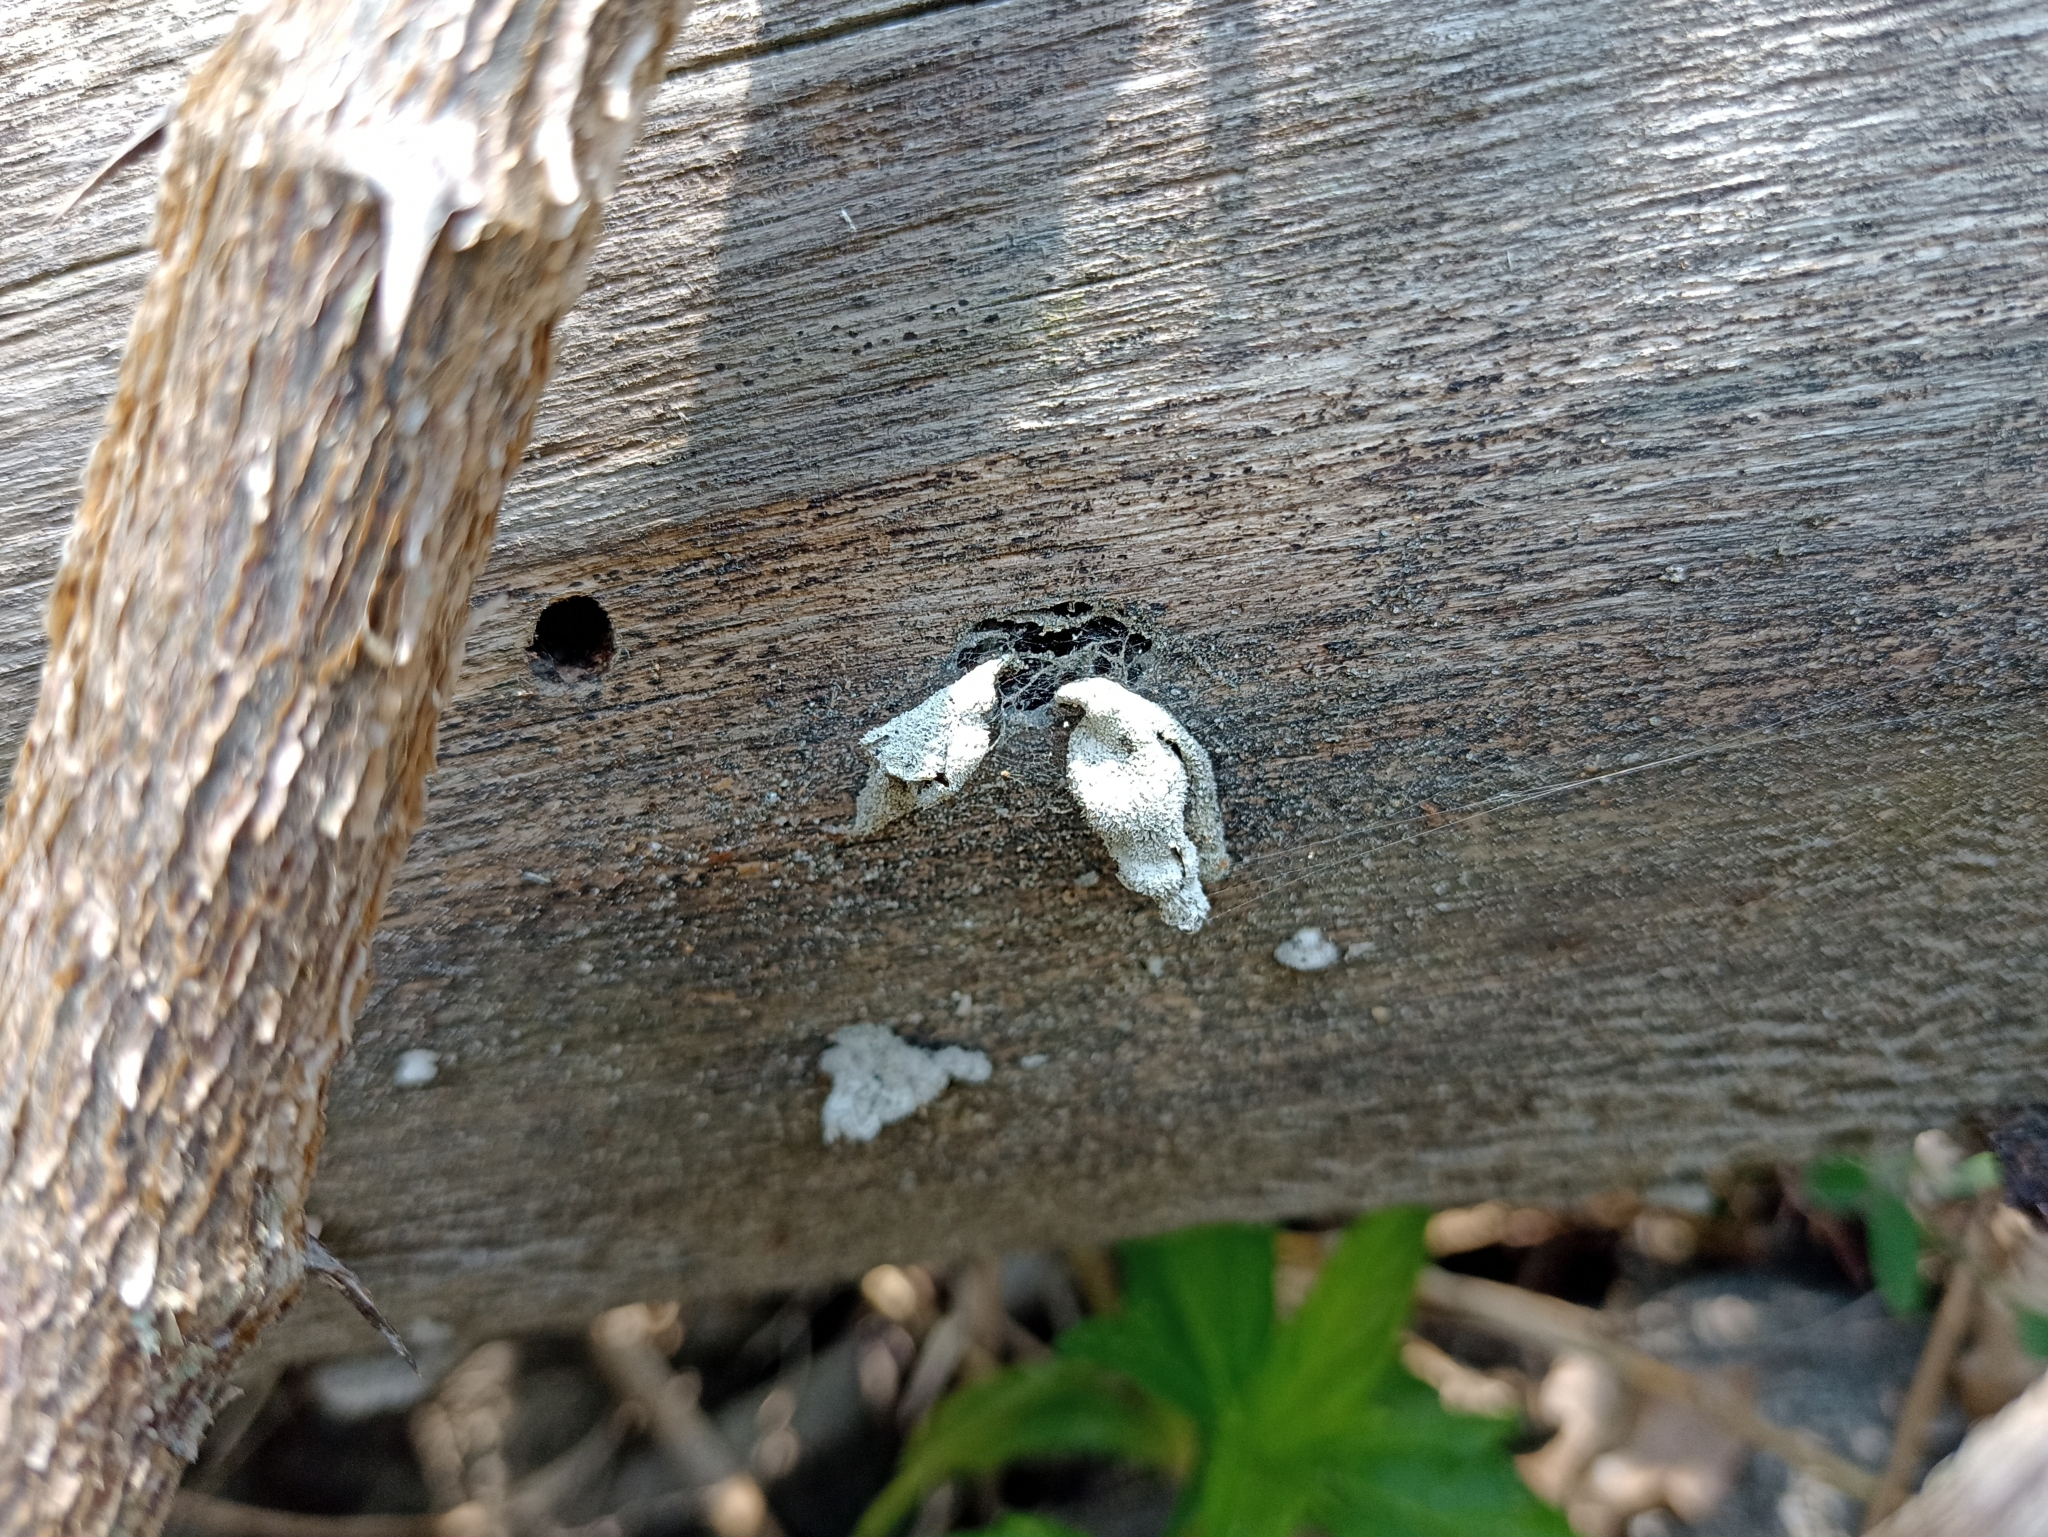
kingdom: Fungi
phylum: Basidiomycota
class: Agaricomycetes
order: Agaricales
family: Schizophyllaceae
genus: Schizophyllum
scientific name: Schizophyllum commune
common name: Common porecrust
